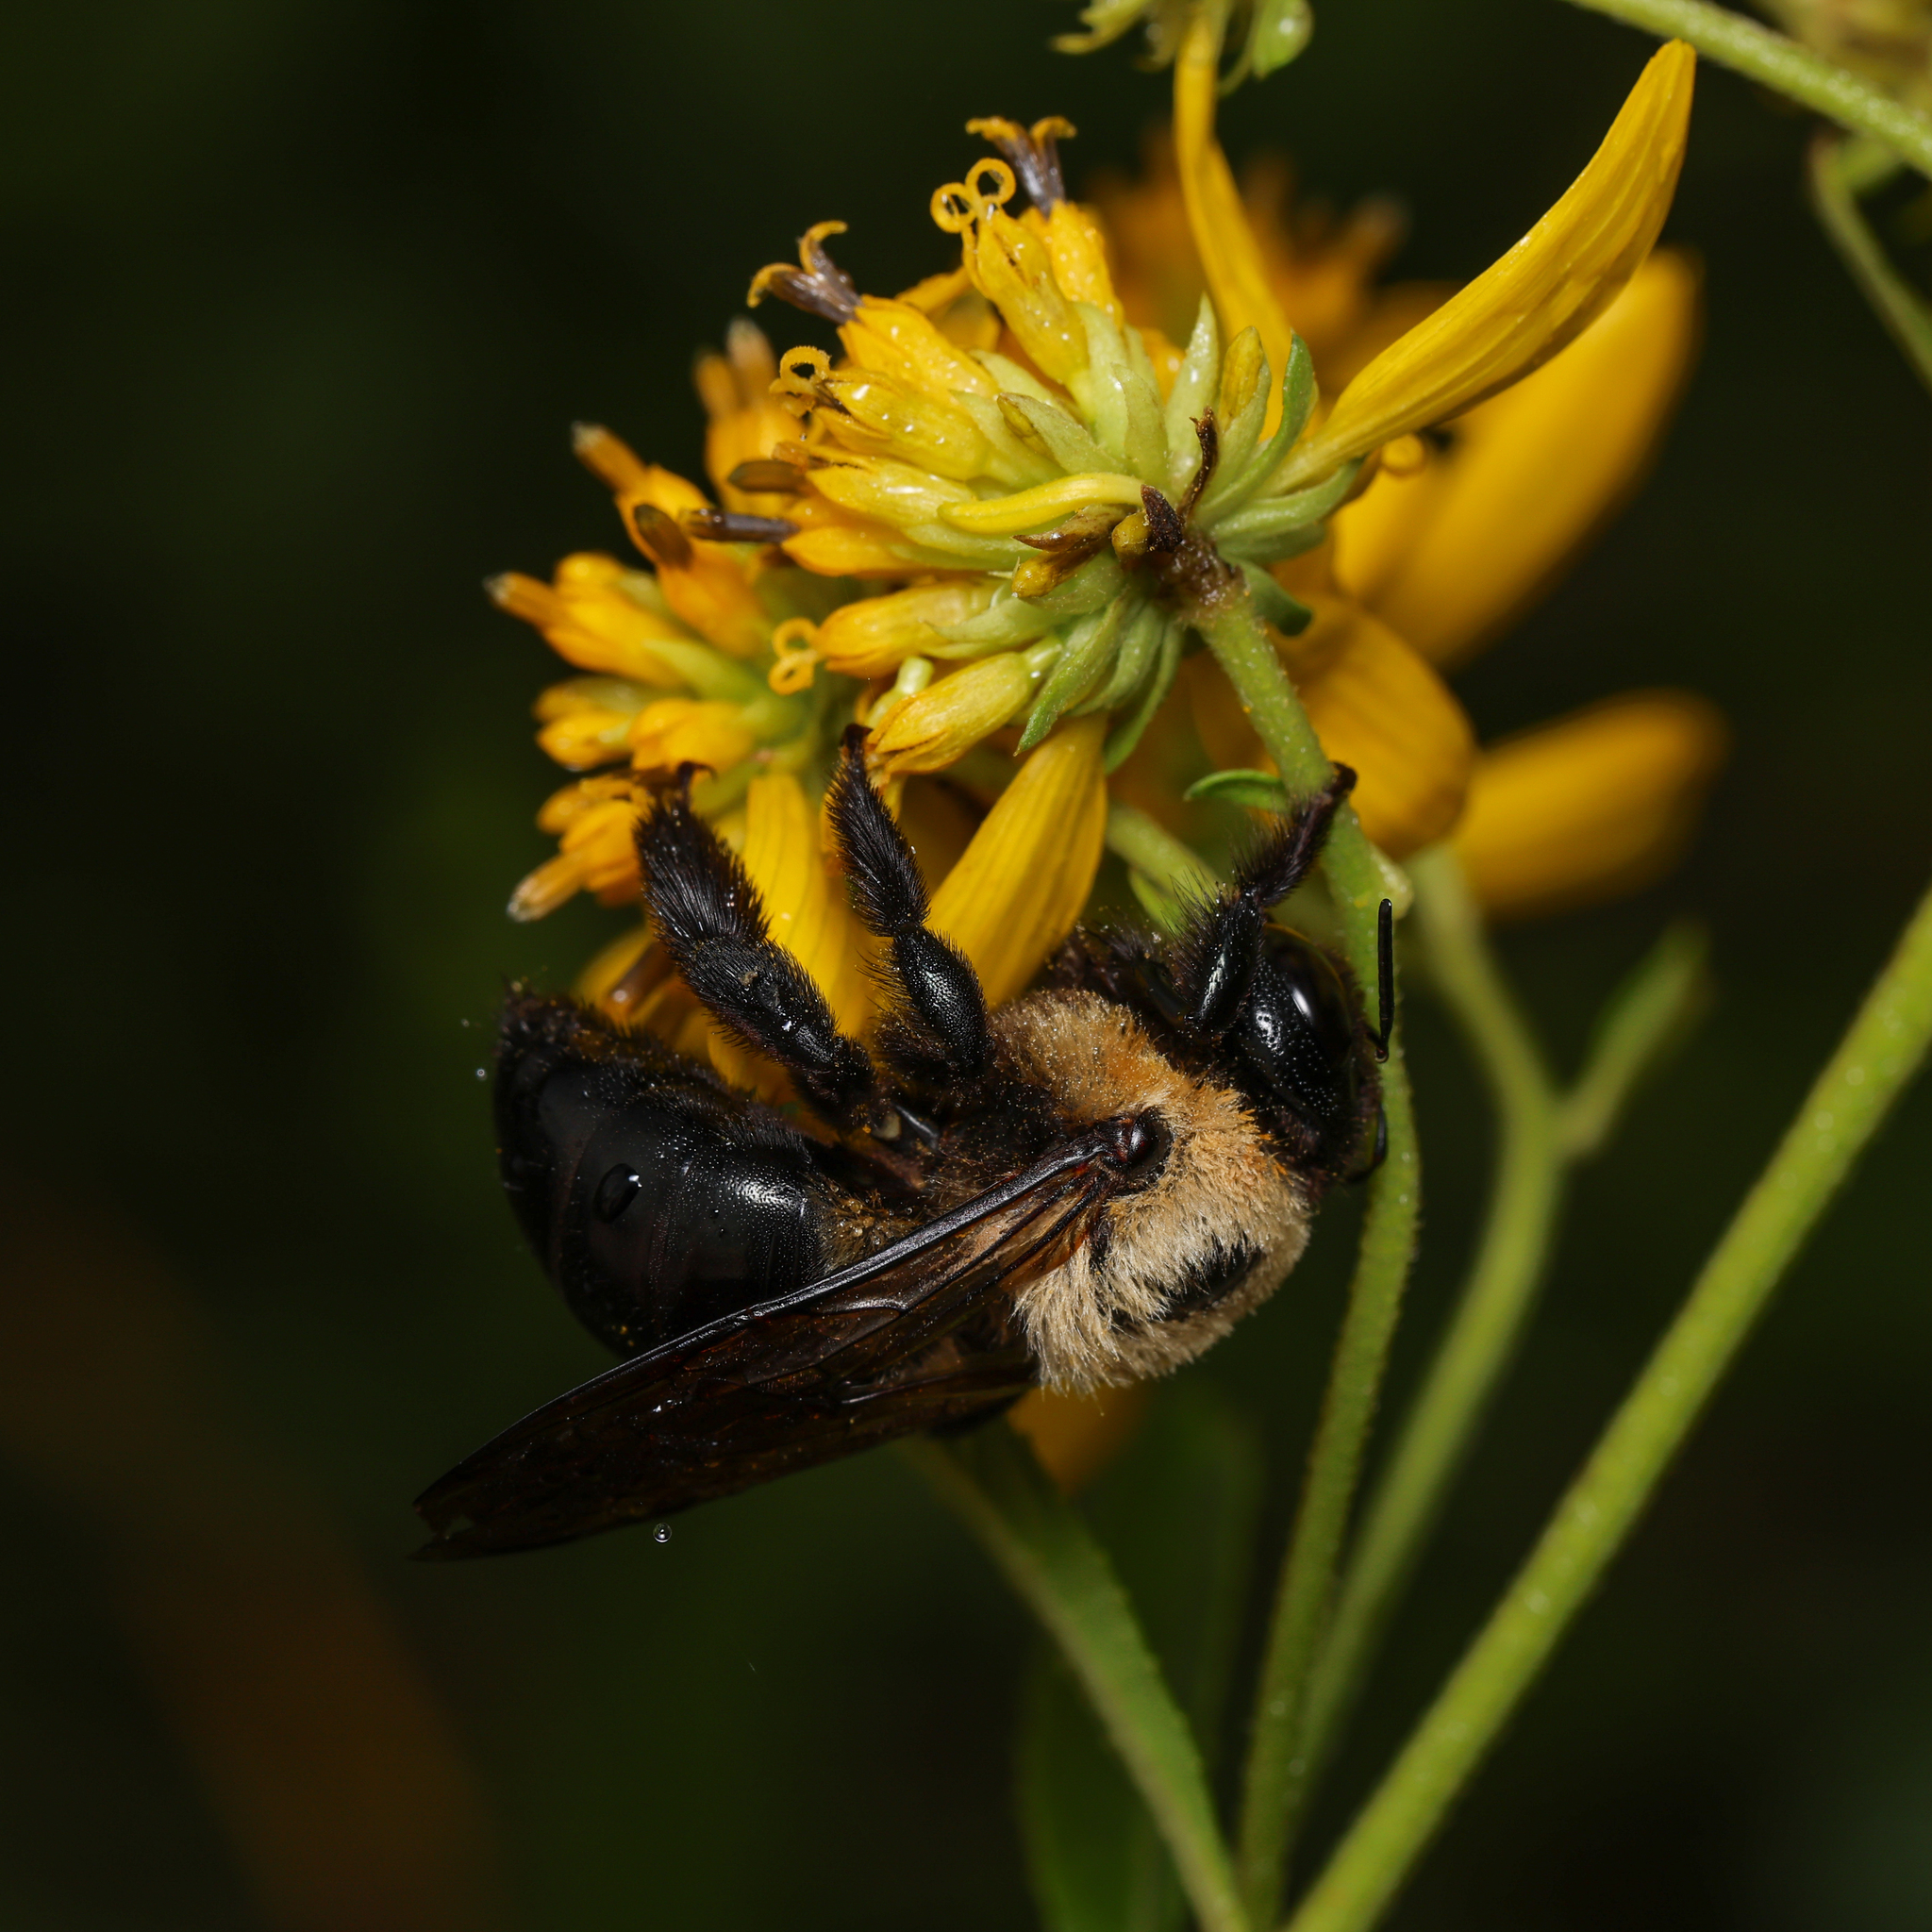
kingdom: Animalia
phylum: Arthropoda
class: Insecta
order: Hymenoptera
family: Apidae
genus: Xylocopa
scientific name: Xylocopa virginica
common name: Carpenter bee
